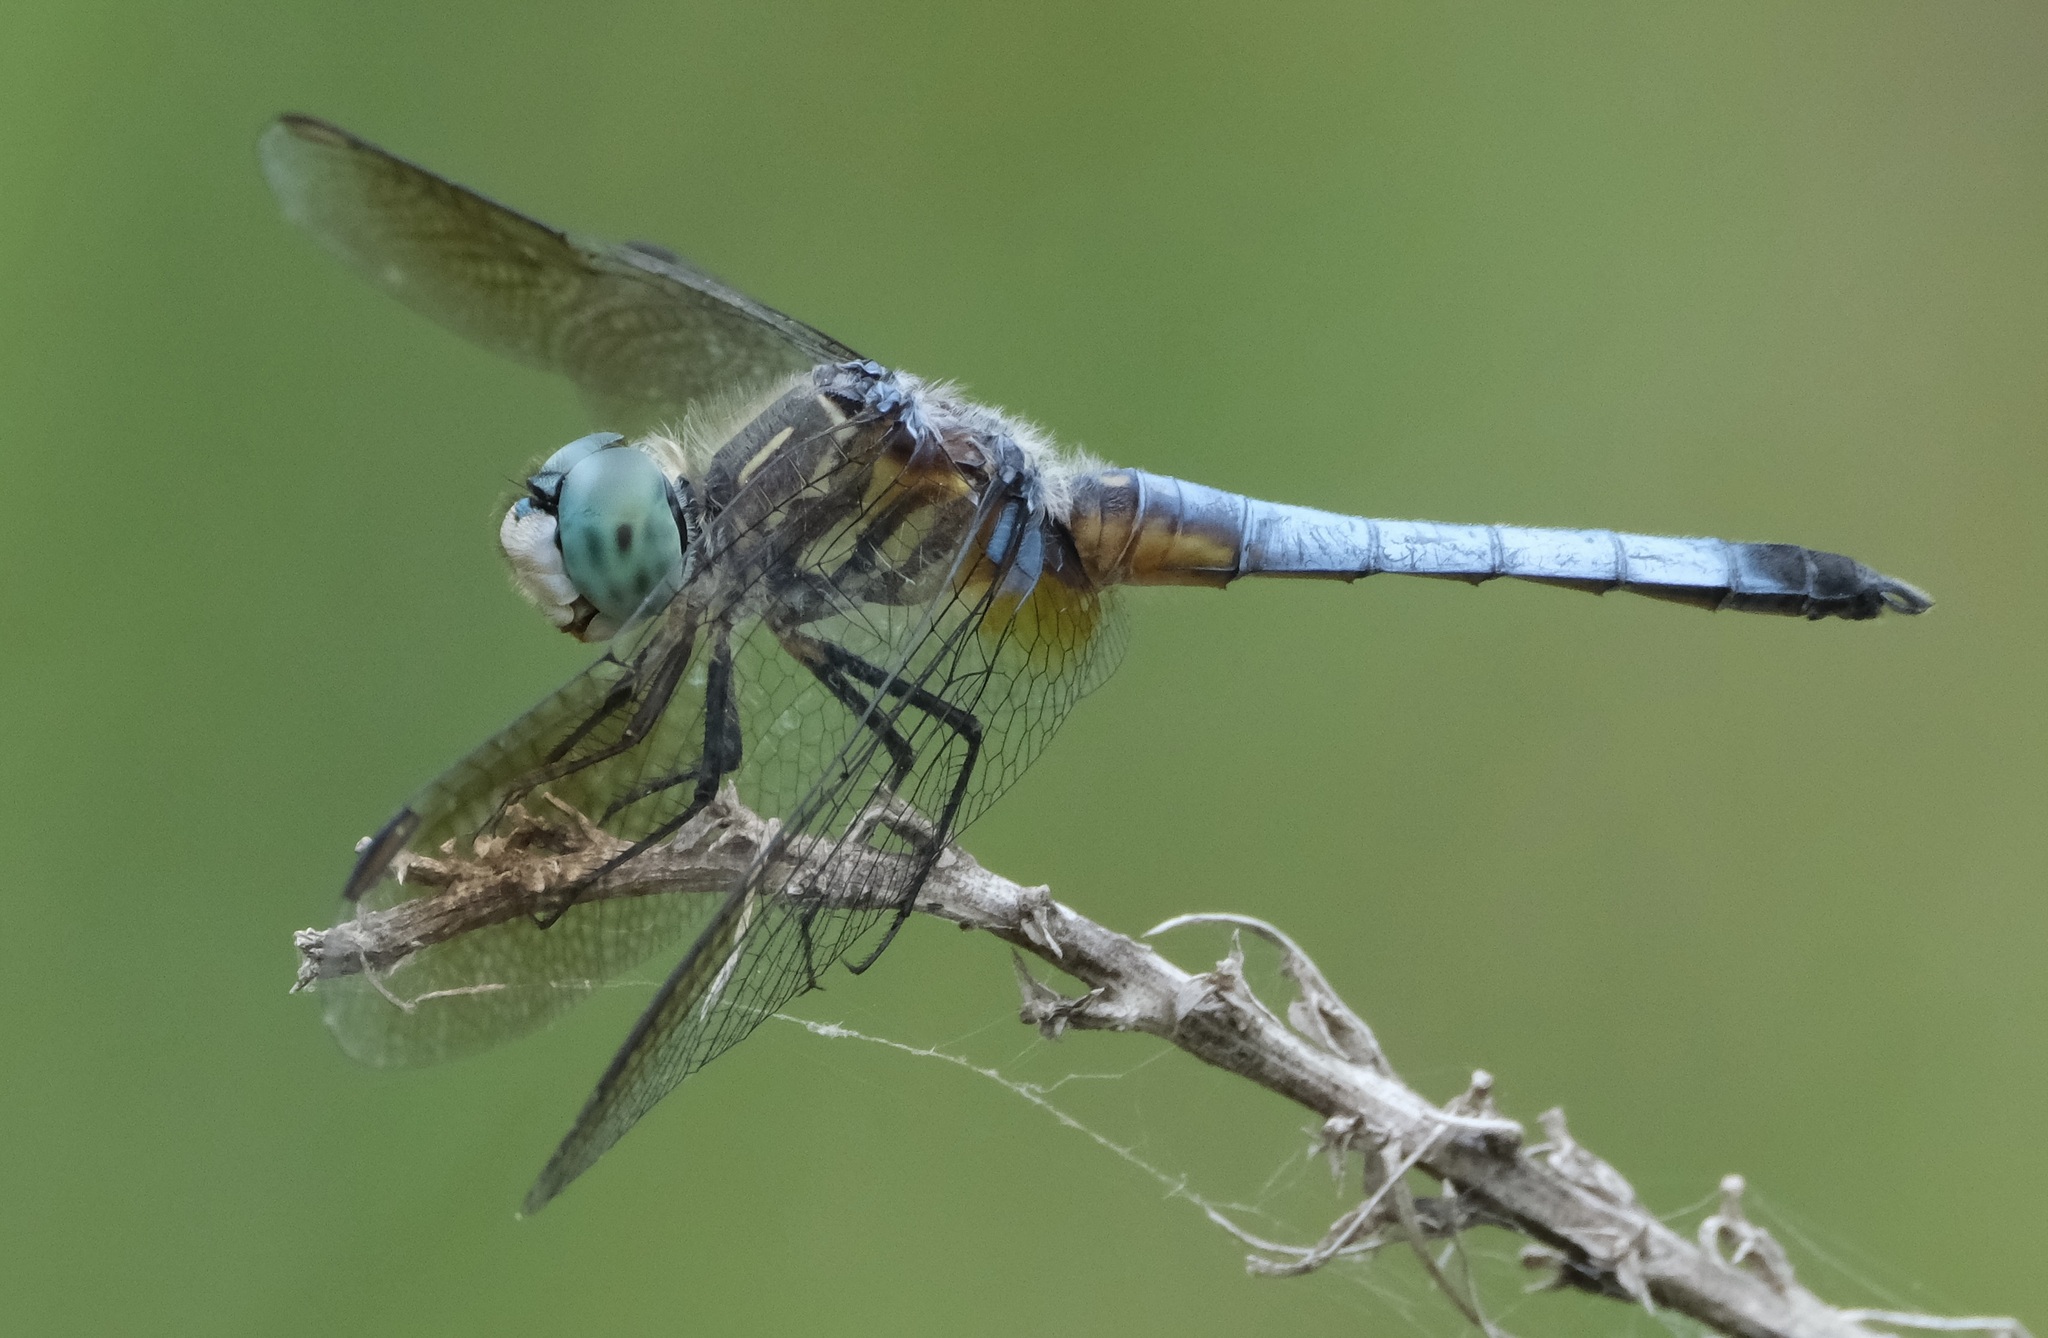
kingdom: Animalia
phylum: Arthropoda
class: Insecta
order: Odonata
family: Libellulidae
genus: Pachydiplax
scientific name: Pachydiplax longipennis
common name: Blue dasher
